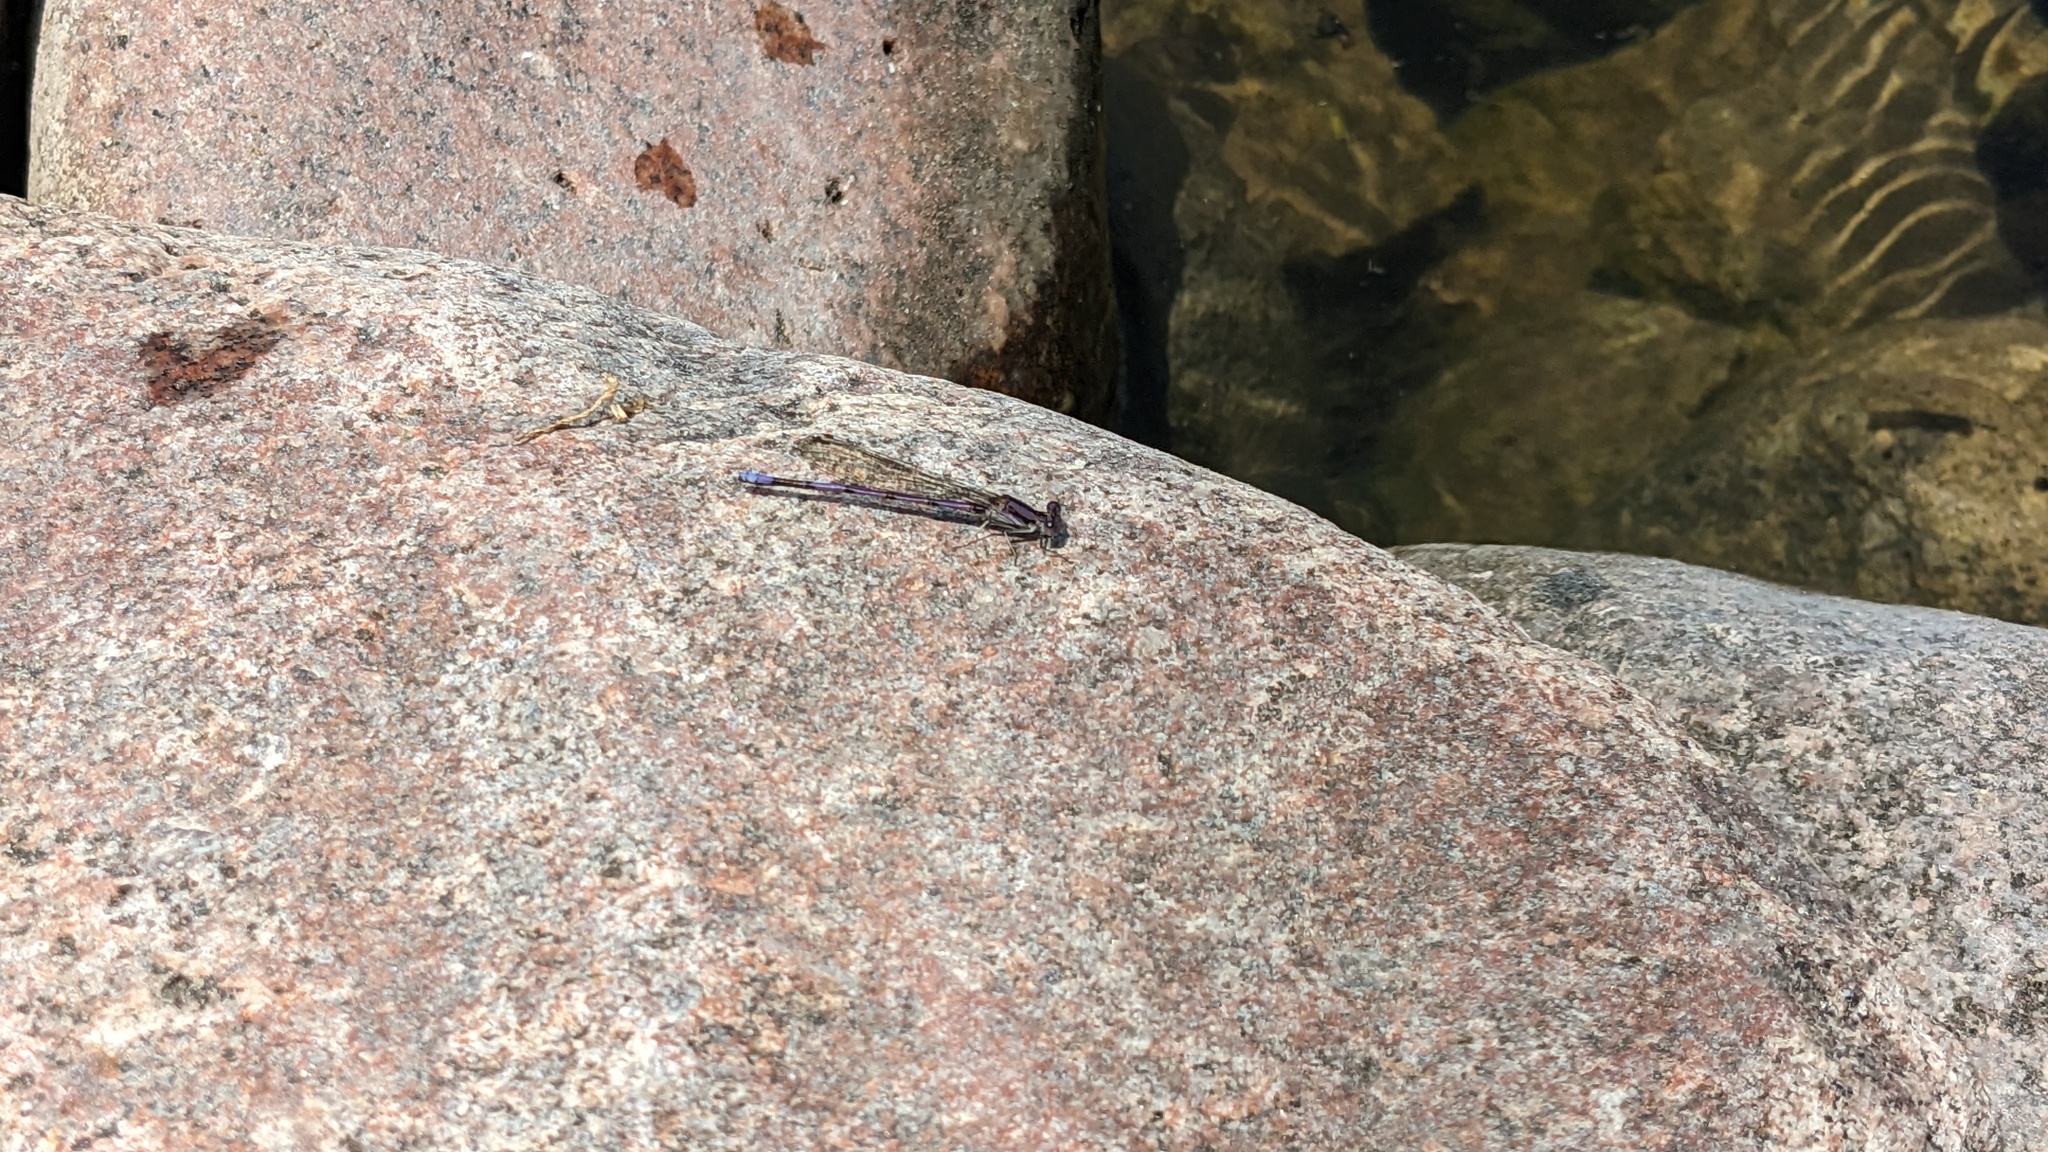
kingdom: Animalia
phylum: Arthropoda
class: Insecta
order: Odonata
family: Coenagrionidae
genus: Argia
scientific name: Argia fumipennis
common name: Variable dancer
